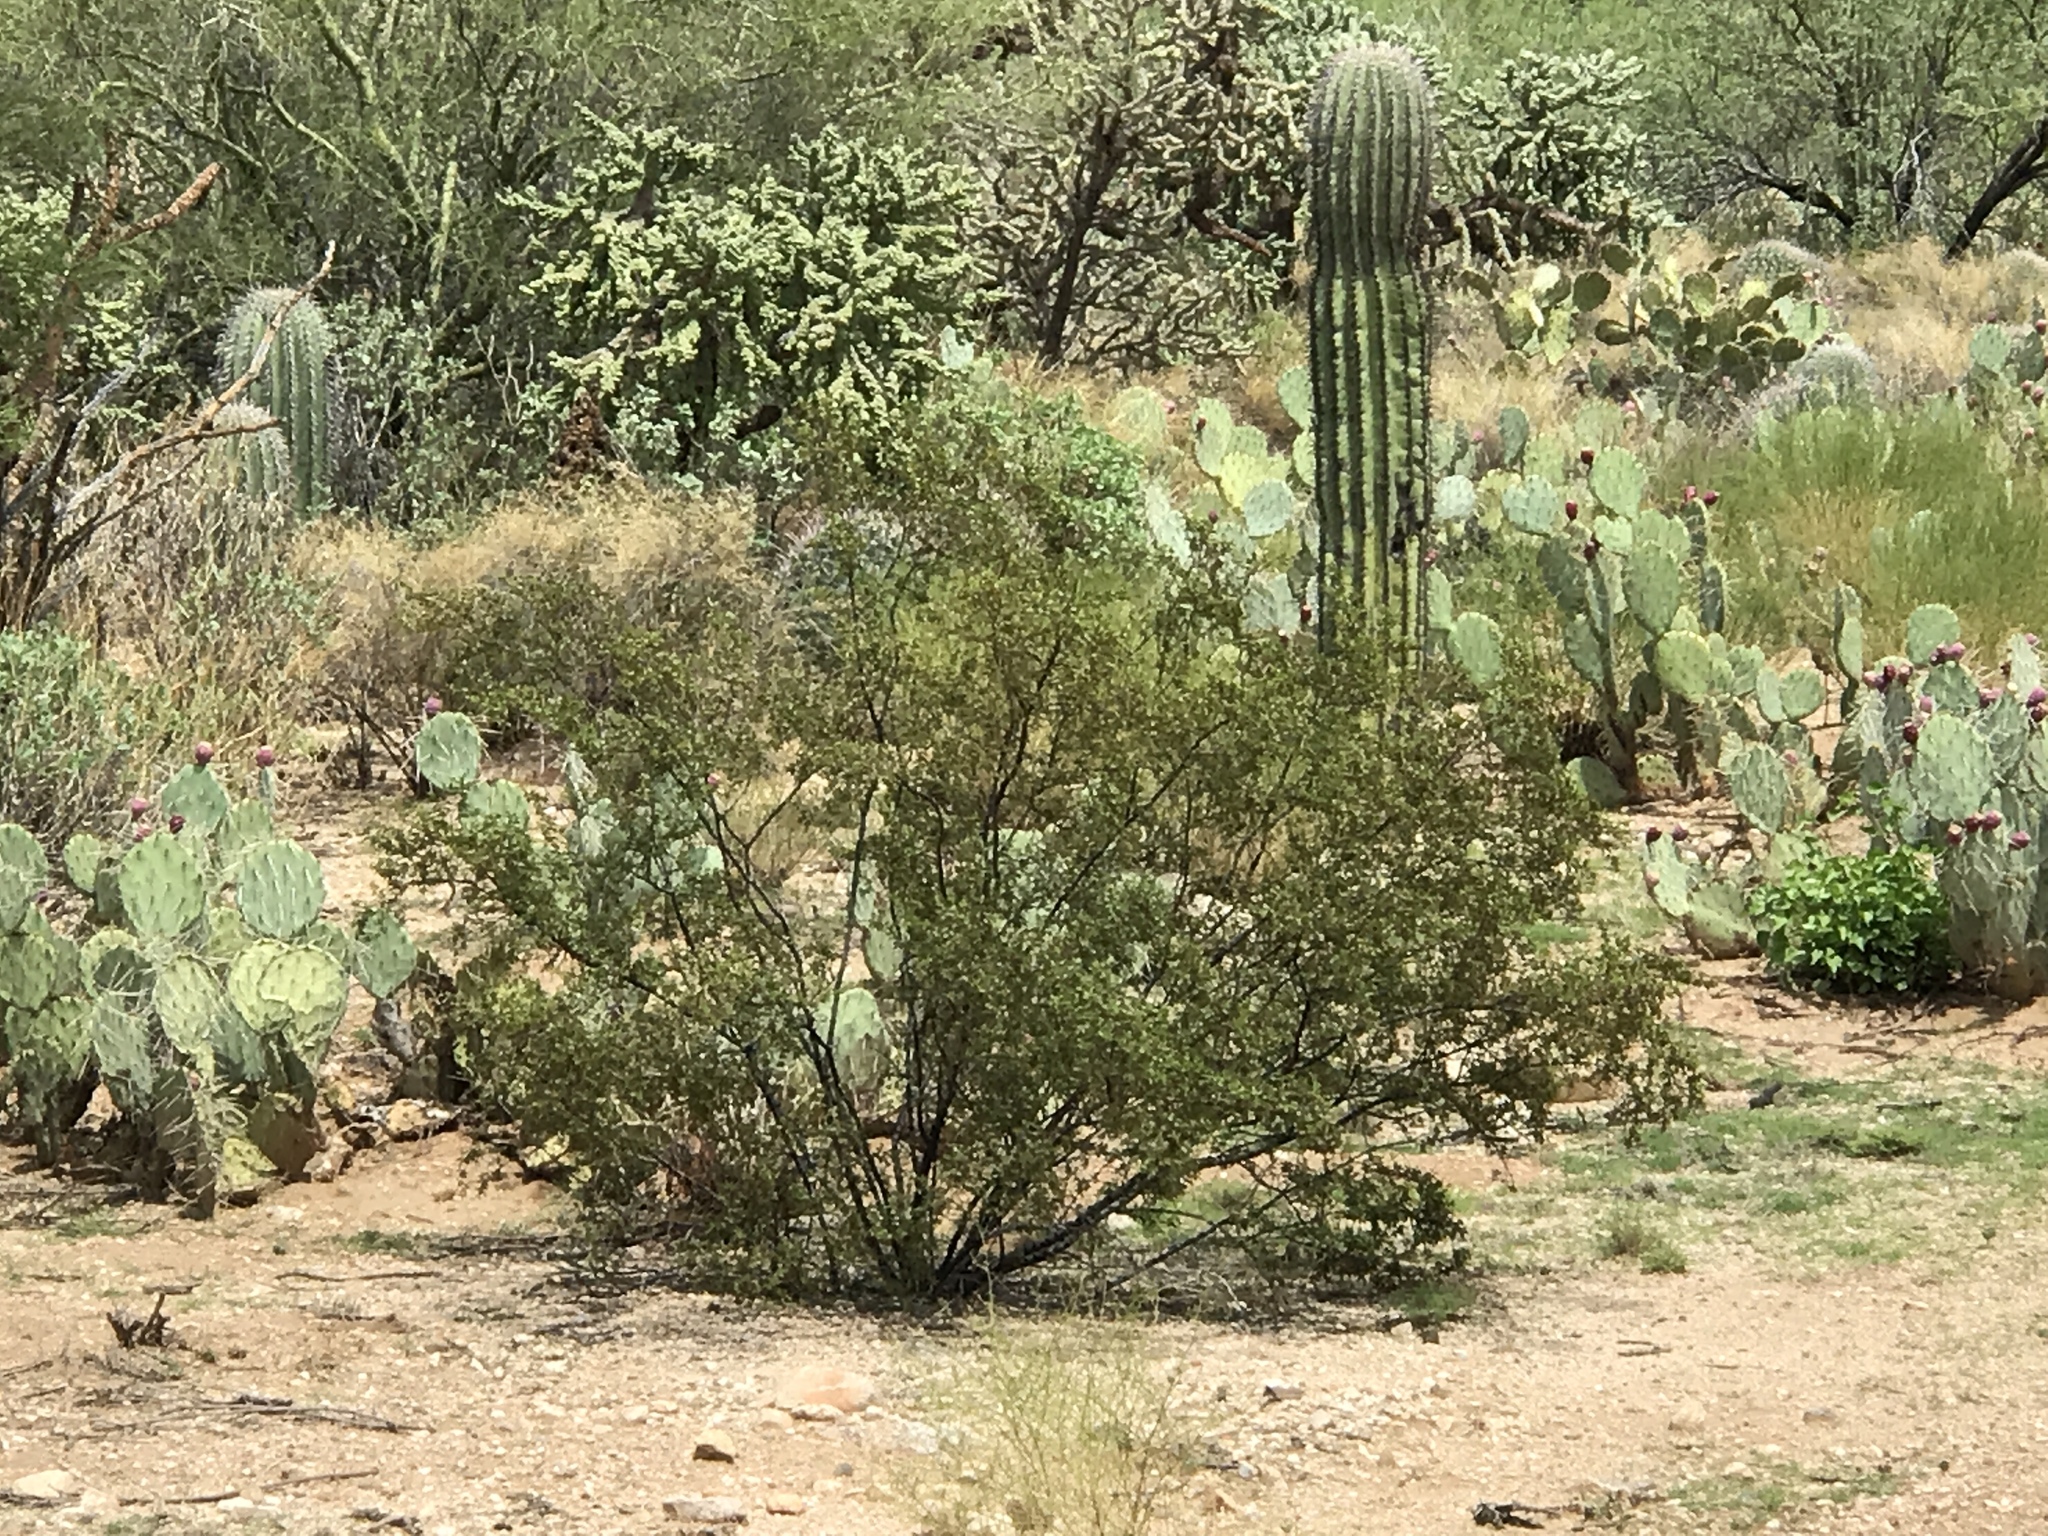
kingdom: Plantae
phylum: Tracheophyta
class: Magnoliopsida
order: Zygophyllales
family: Zygophyllaceae
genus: Larrea
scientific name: Larrea tridentata
